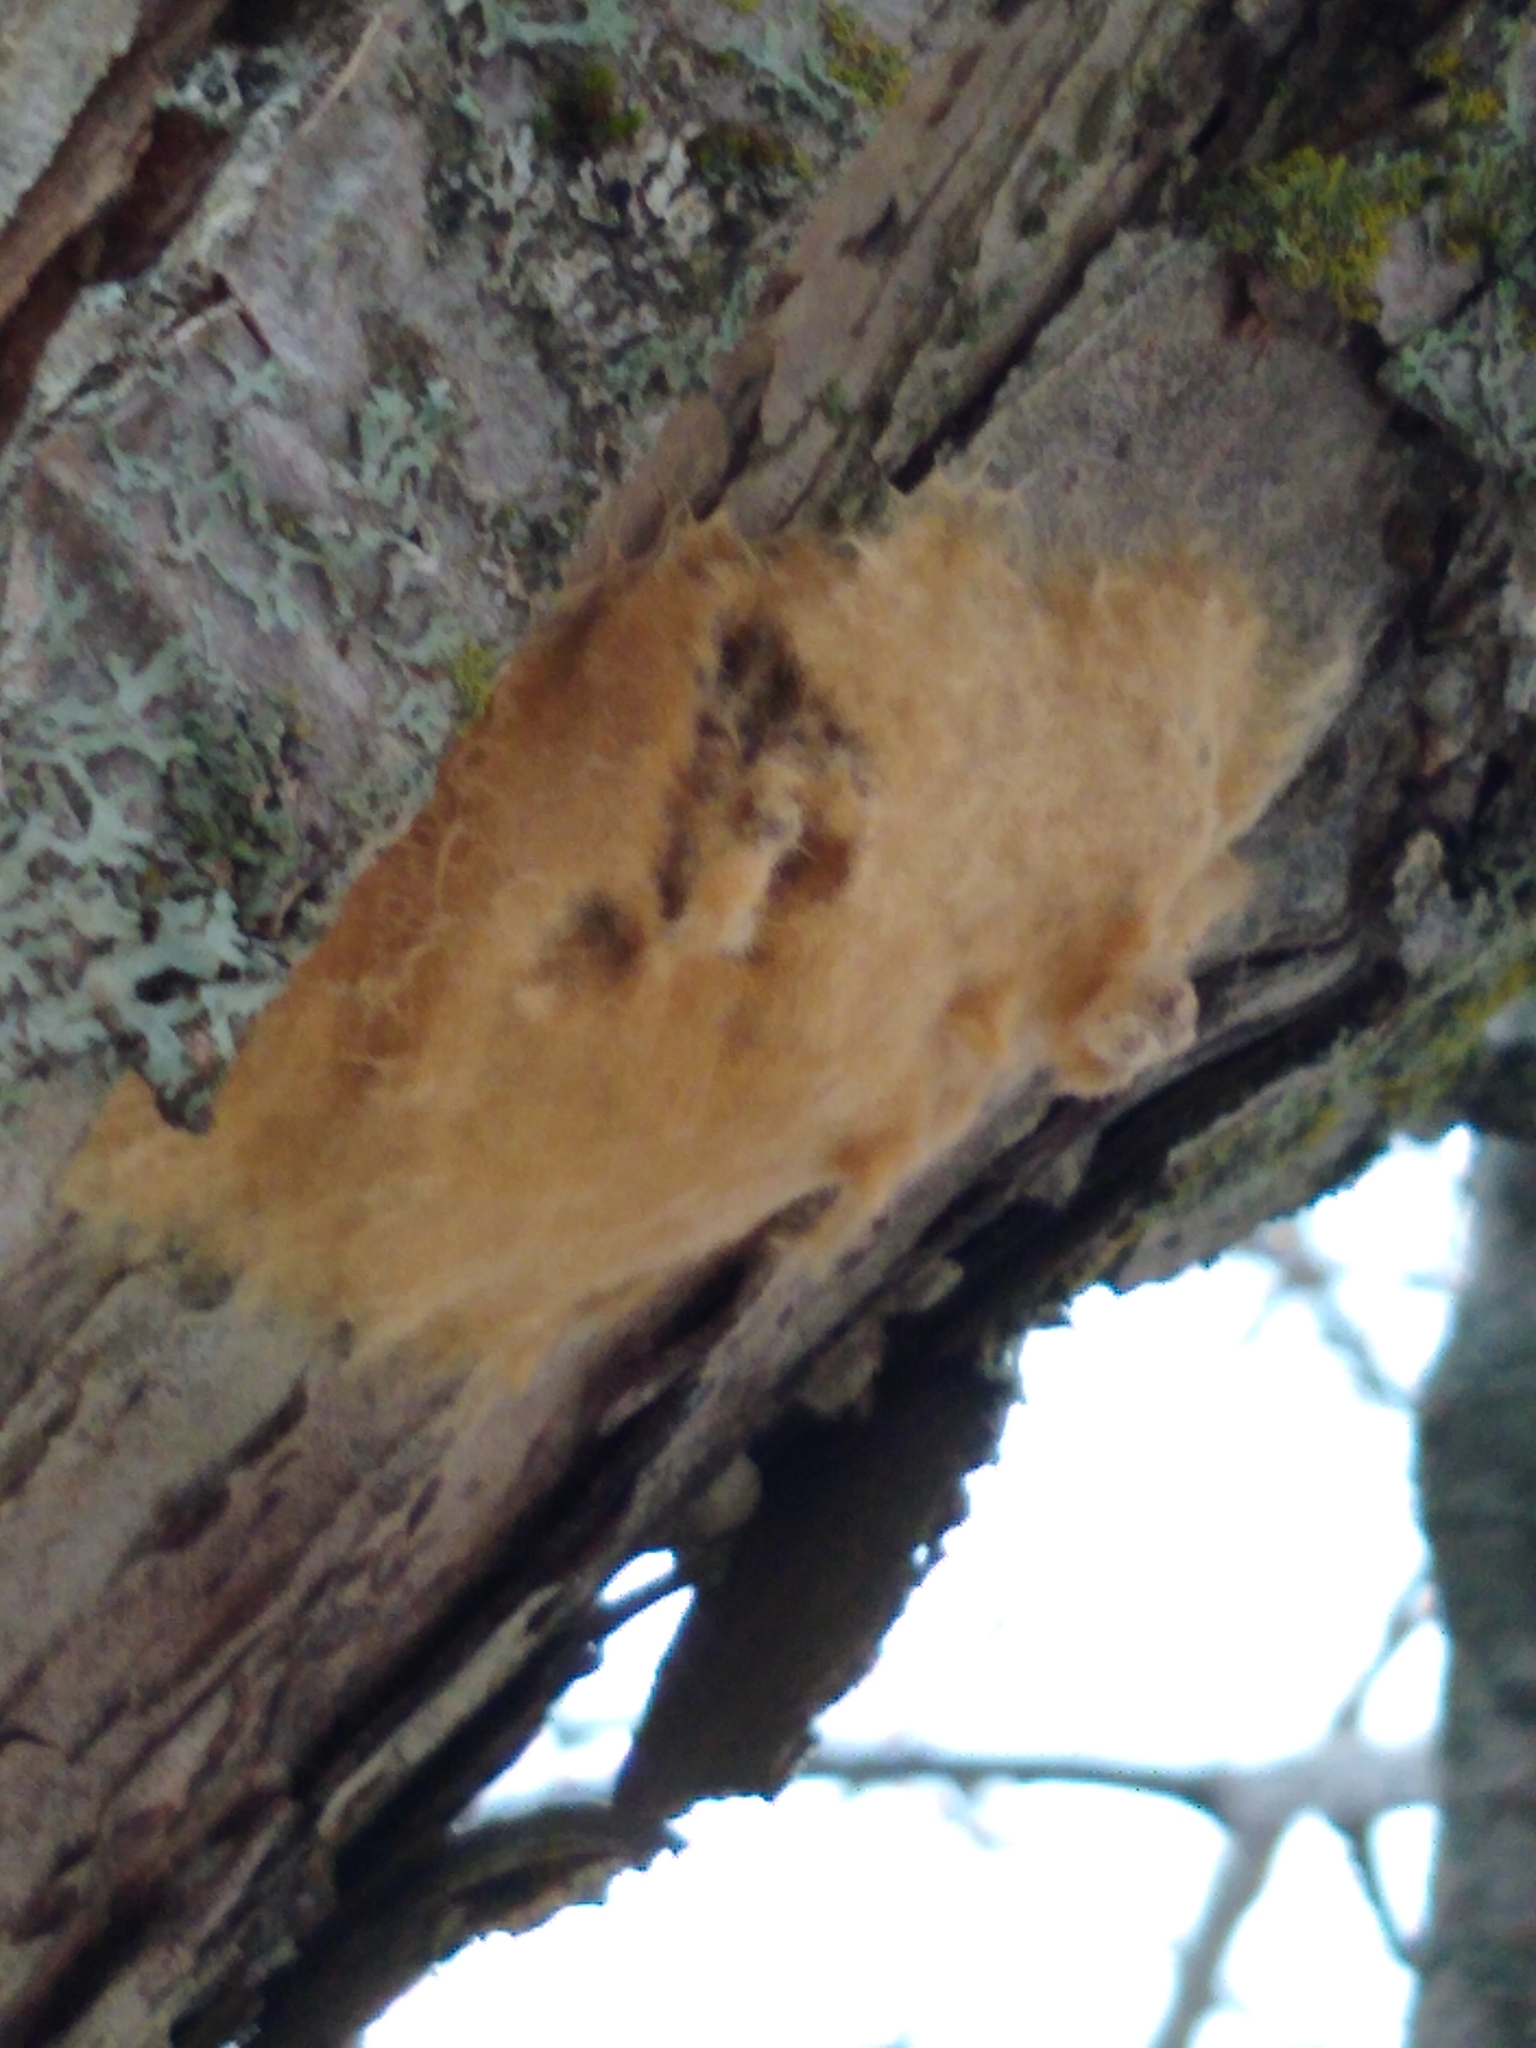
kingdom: Animalia
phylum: Arthropoda
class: Insecta
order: Lepidoptera
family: Erebidae
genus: Lymantria
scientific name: Lymantria dispar
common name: Gypsy moth
